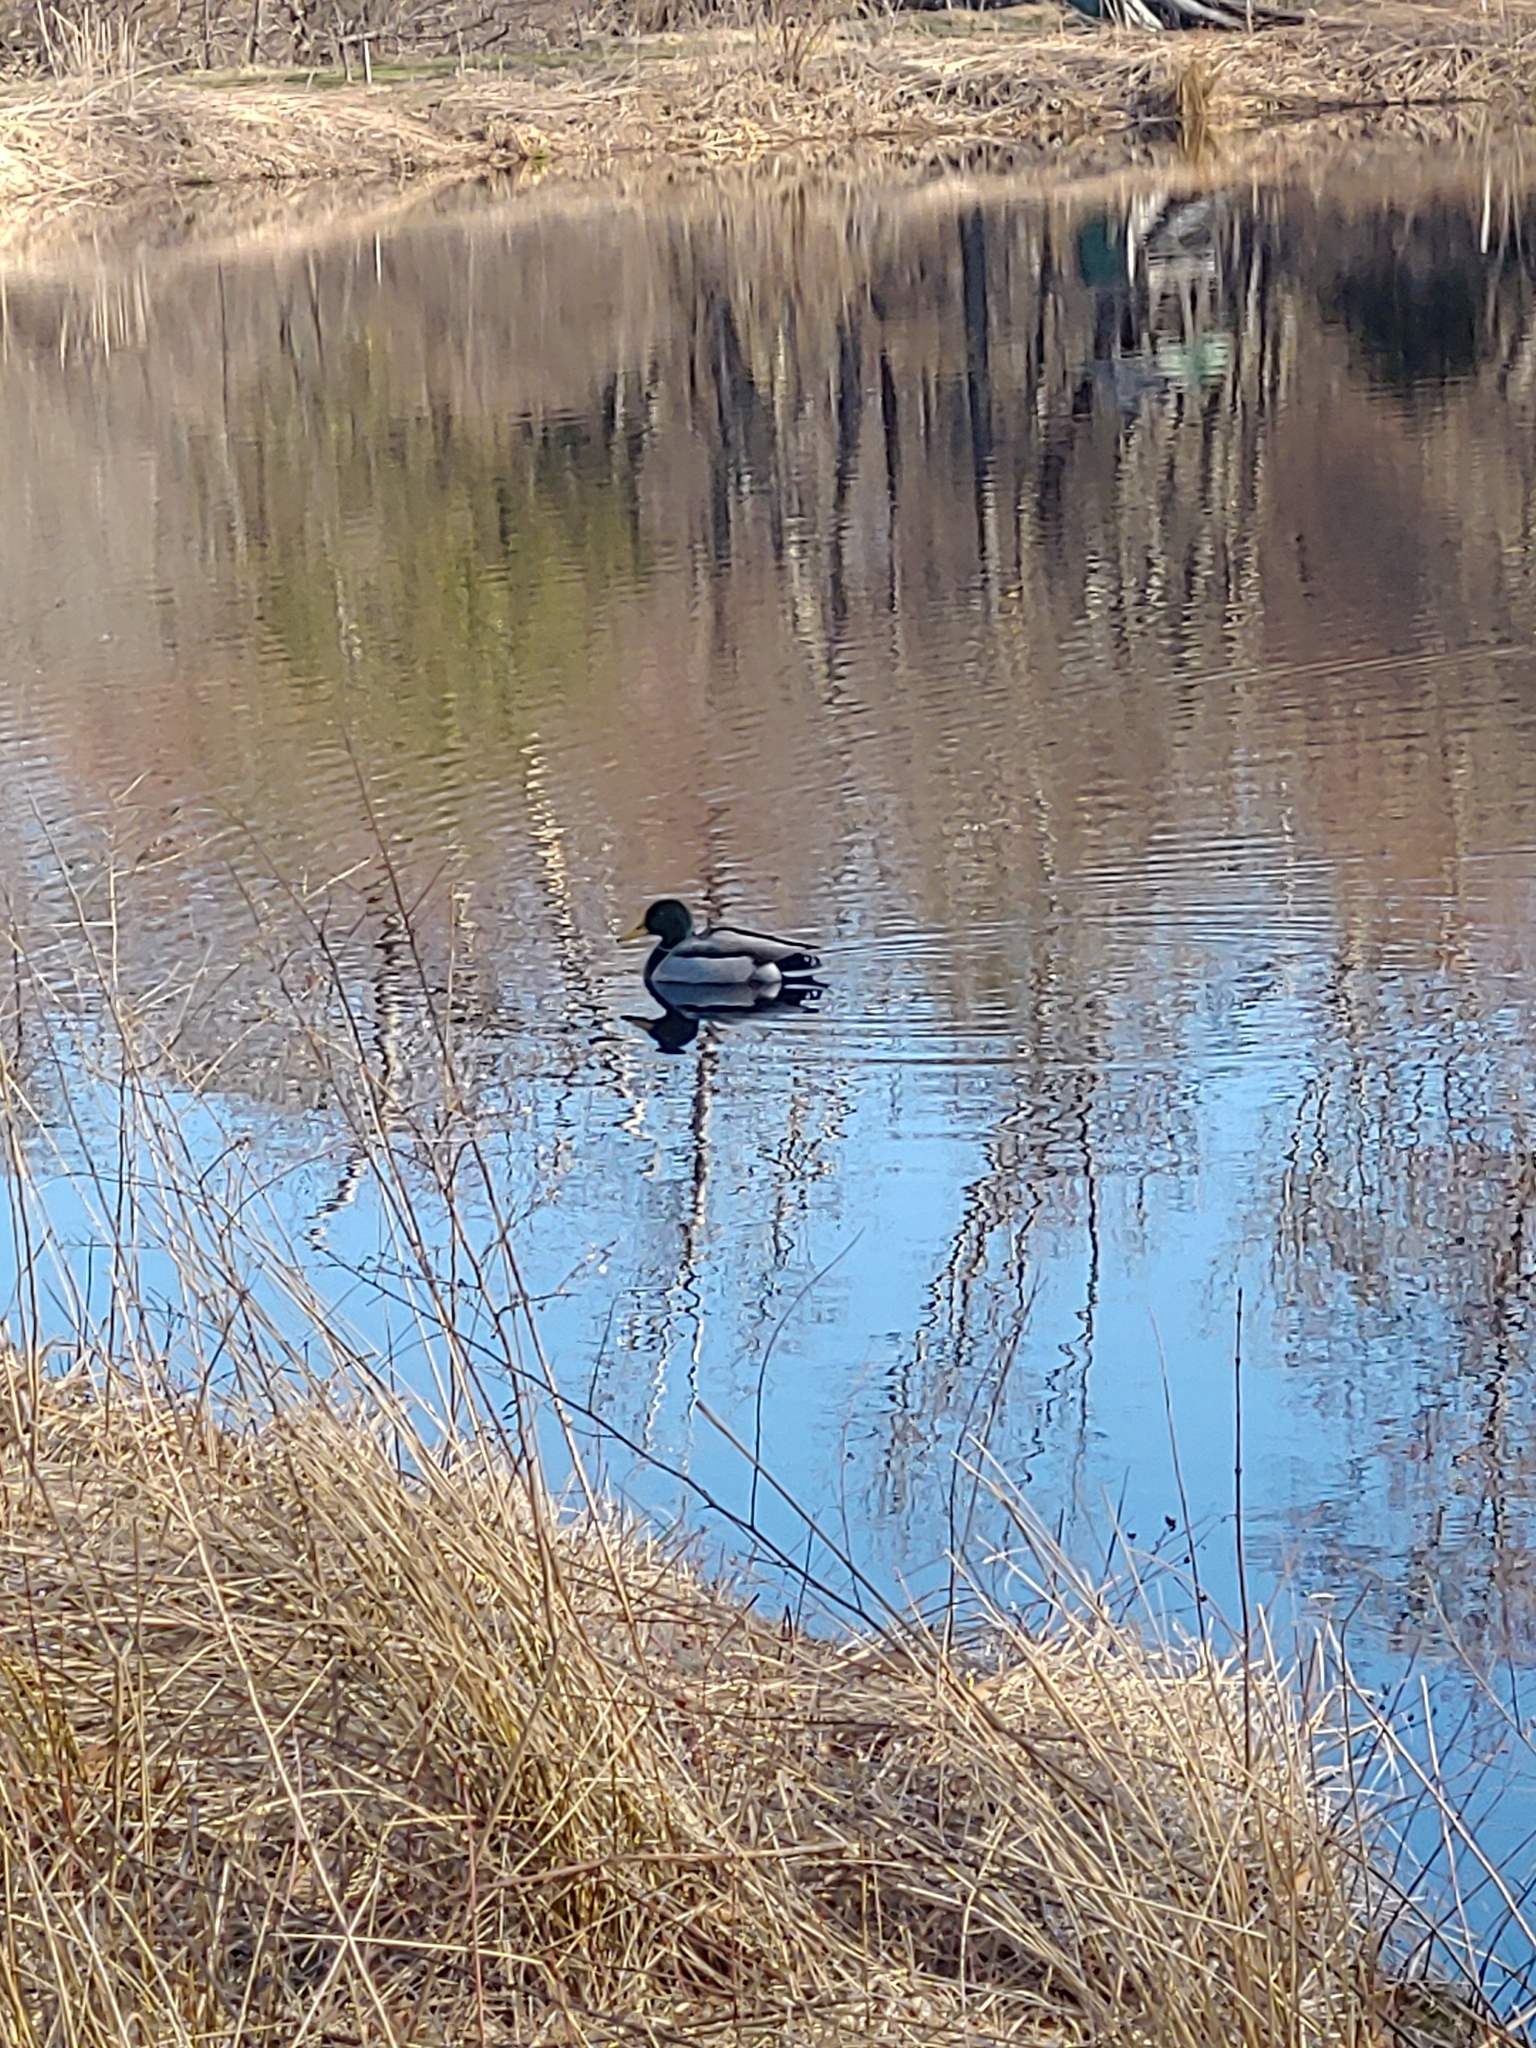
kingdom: Animalia
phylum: Chordata
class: Aves
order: Anseriformes
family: Anatidae
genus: Anas
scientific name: Anas platyrhynchos
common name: Mallard
